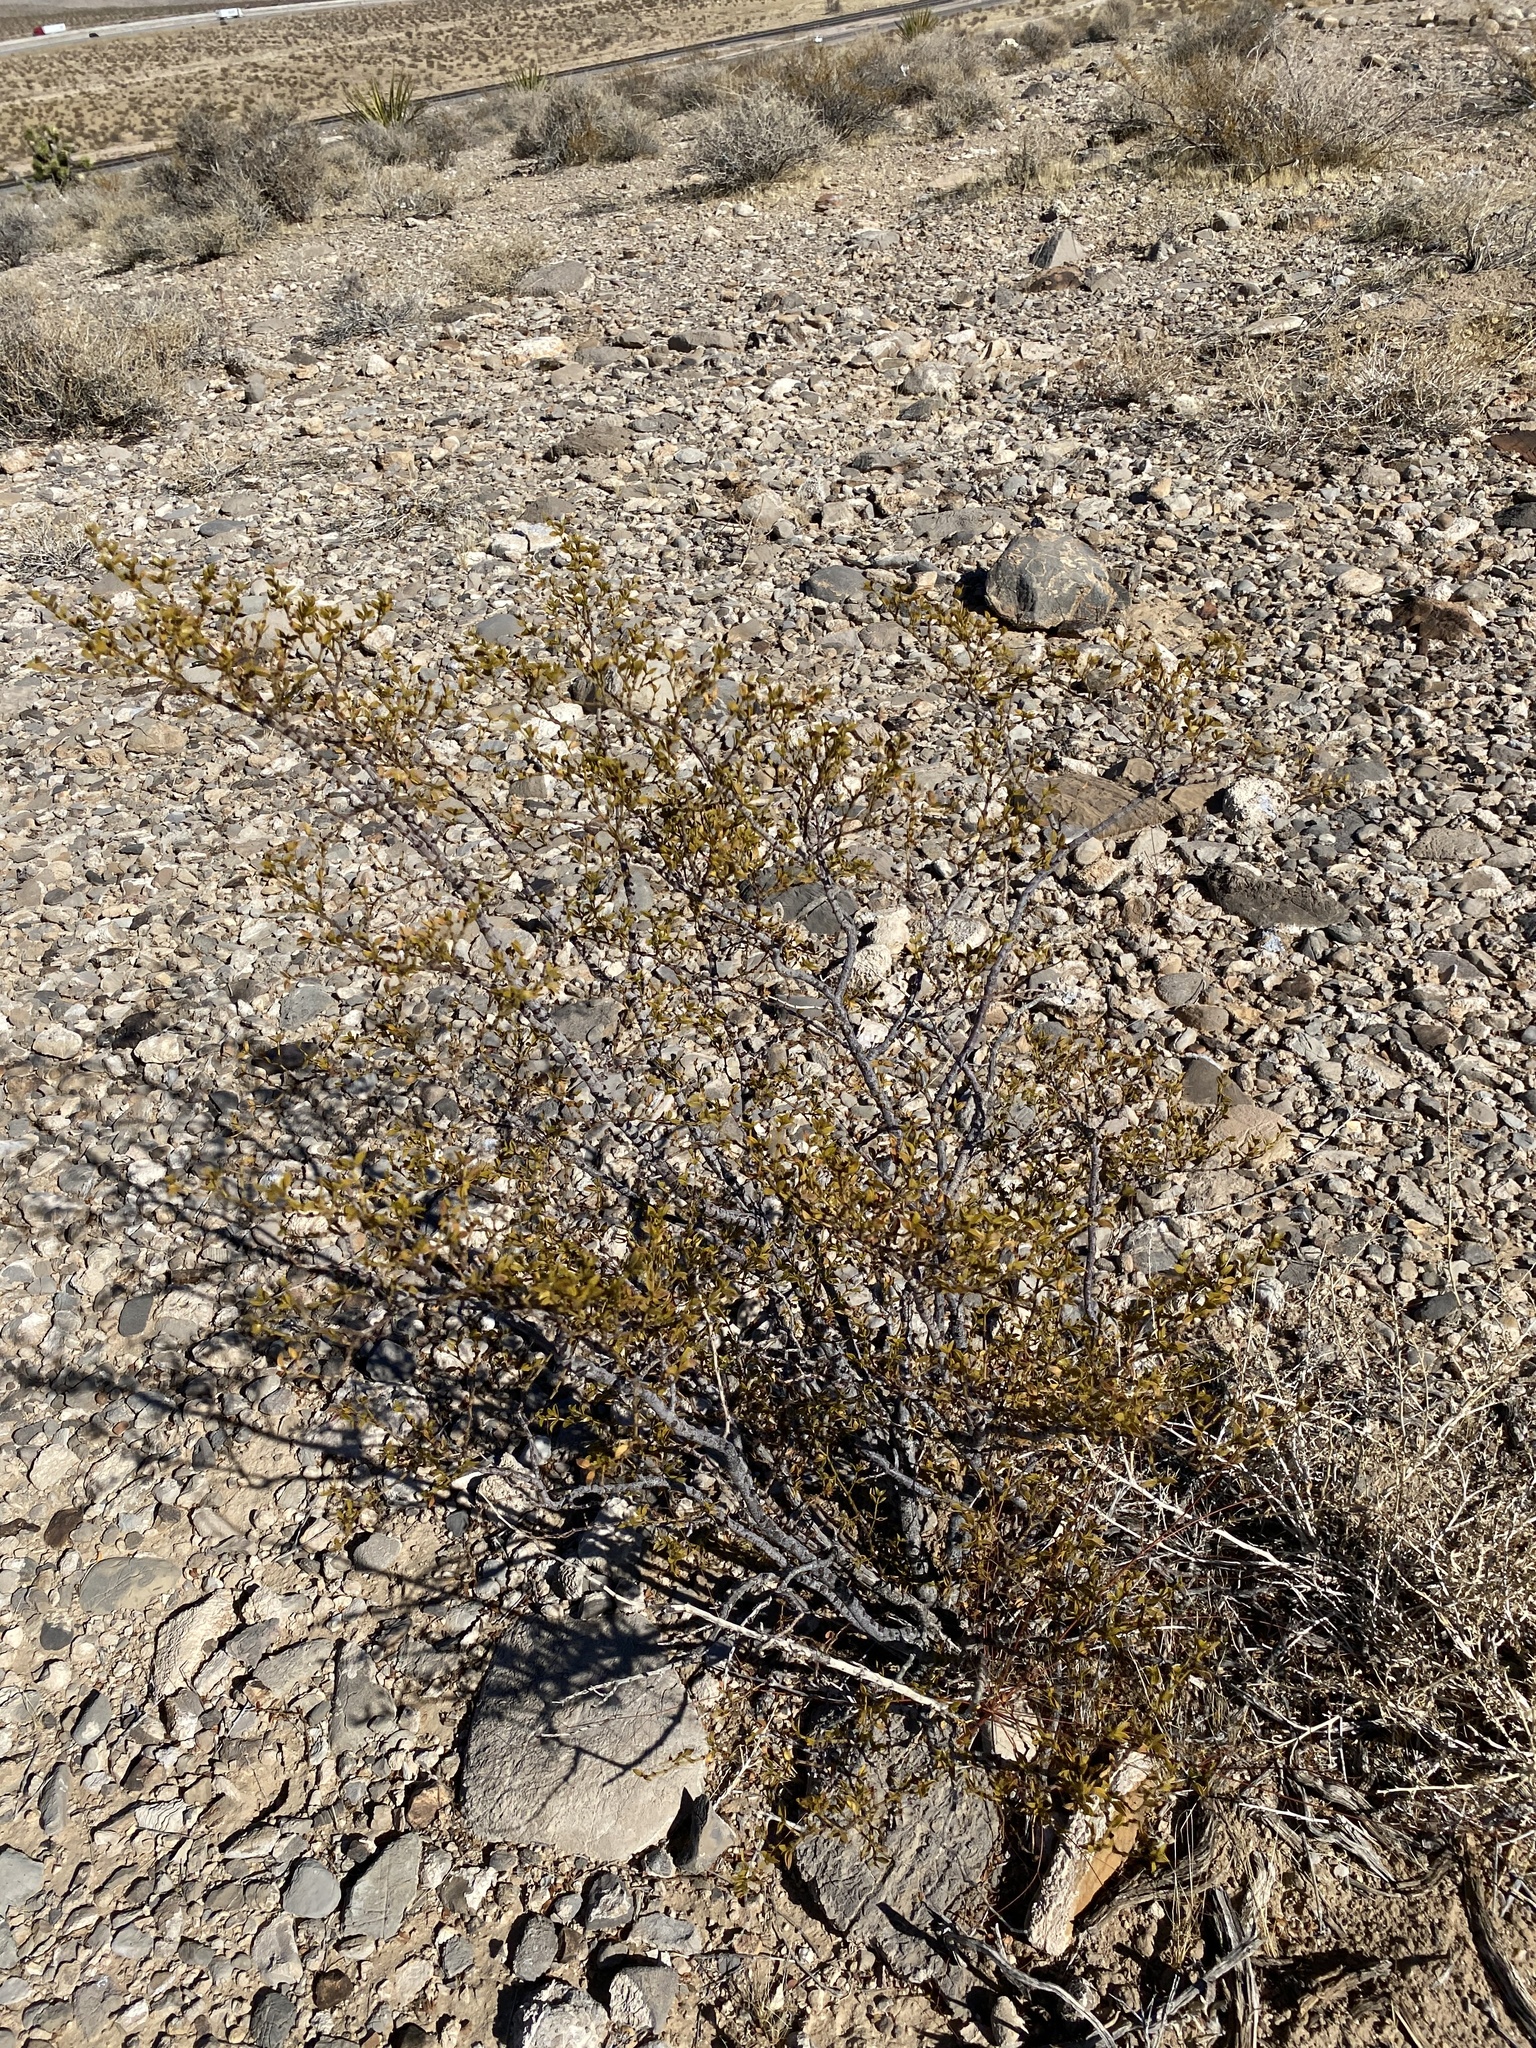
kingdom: Plantae
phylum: Tracheophyta
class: Magnoliopsida
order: Zygophyllales
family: Zygophyllaceae
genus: Larrea
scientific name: Larrea tridentata
